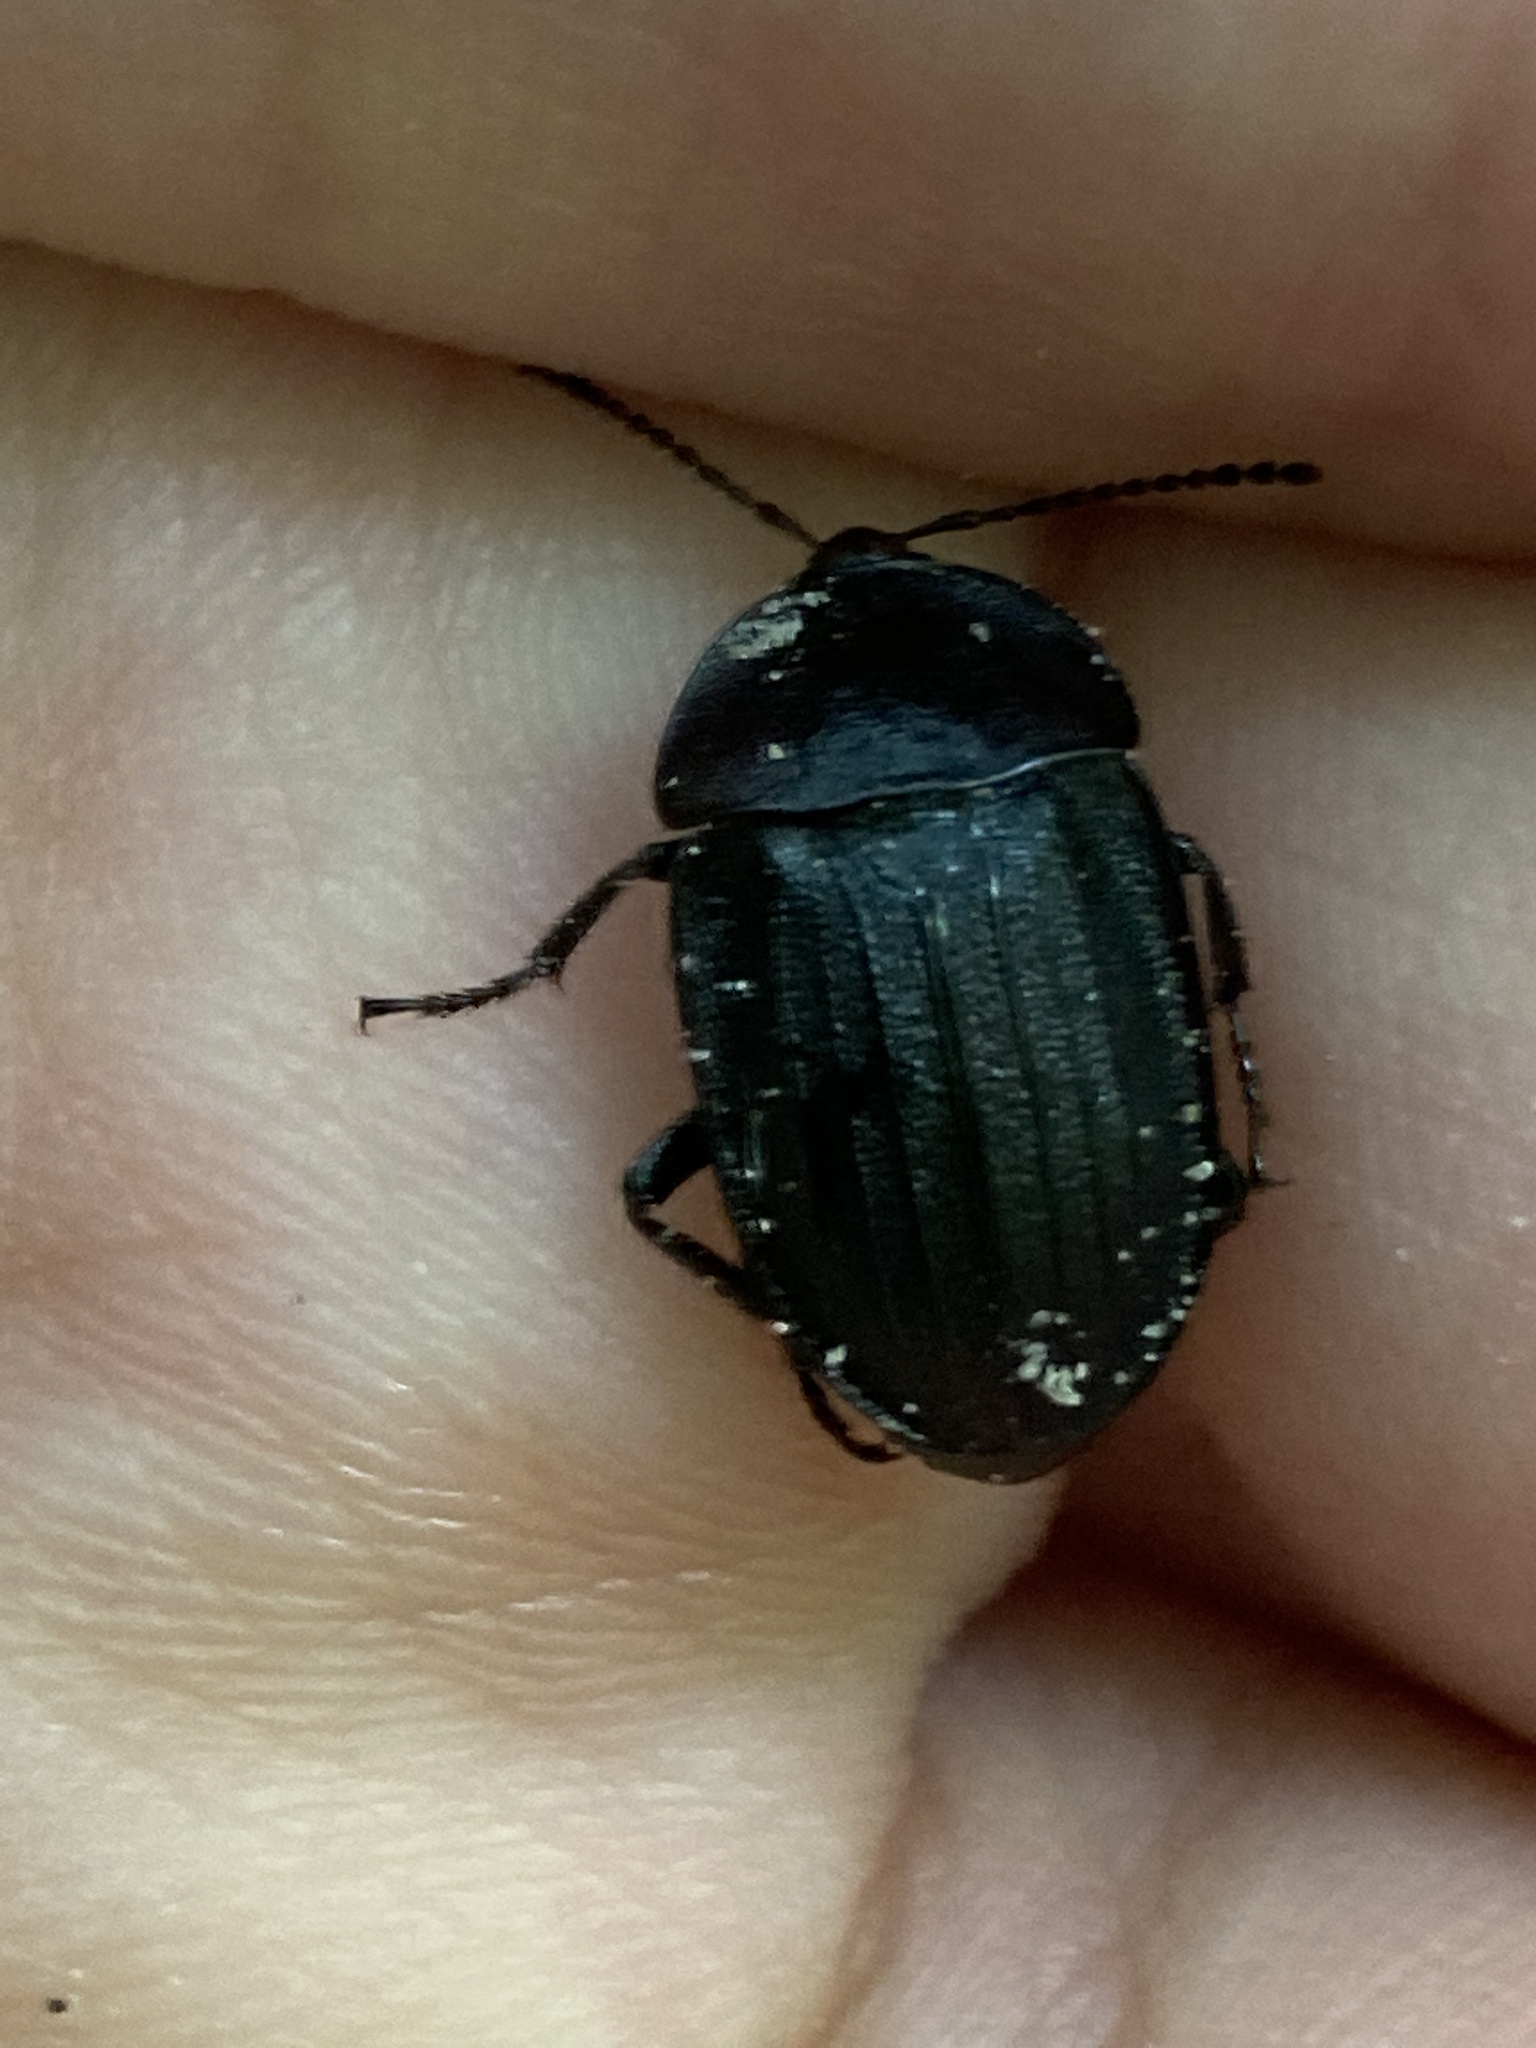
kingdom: Animalia
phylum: Arthropoda
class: Insecta
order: Coleoptera
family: Staphylinidae
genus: Silpha
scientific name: Silpha atrata
